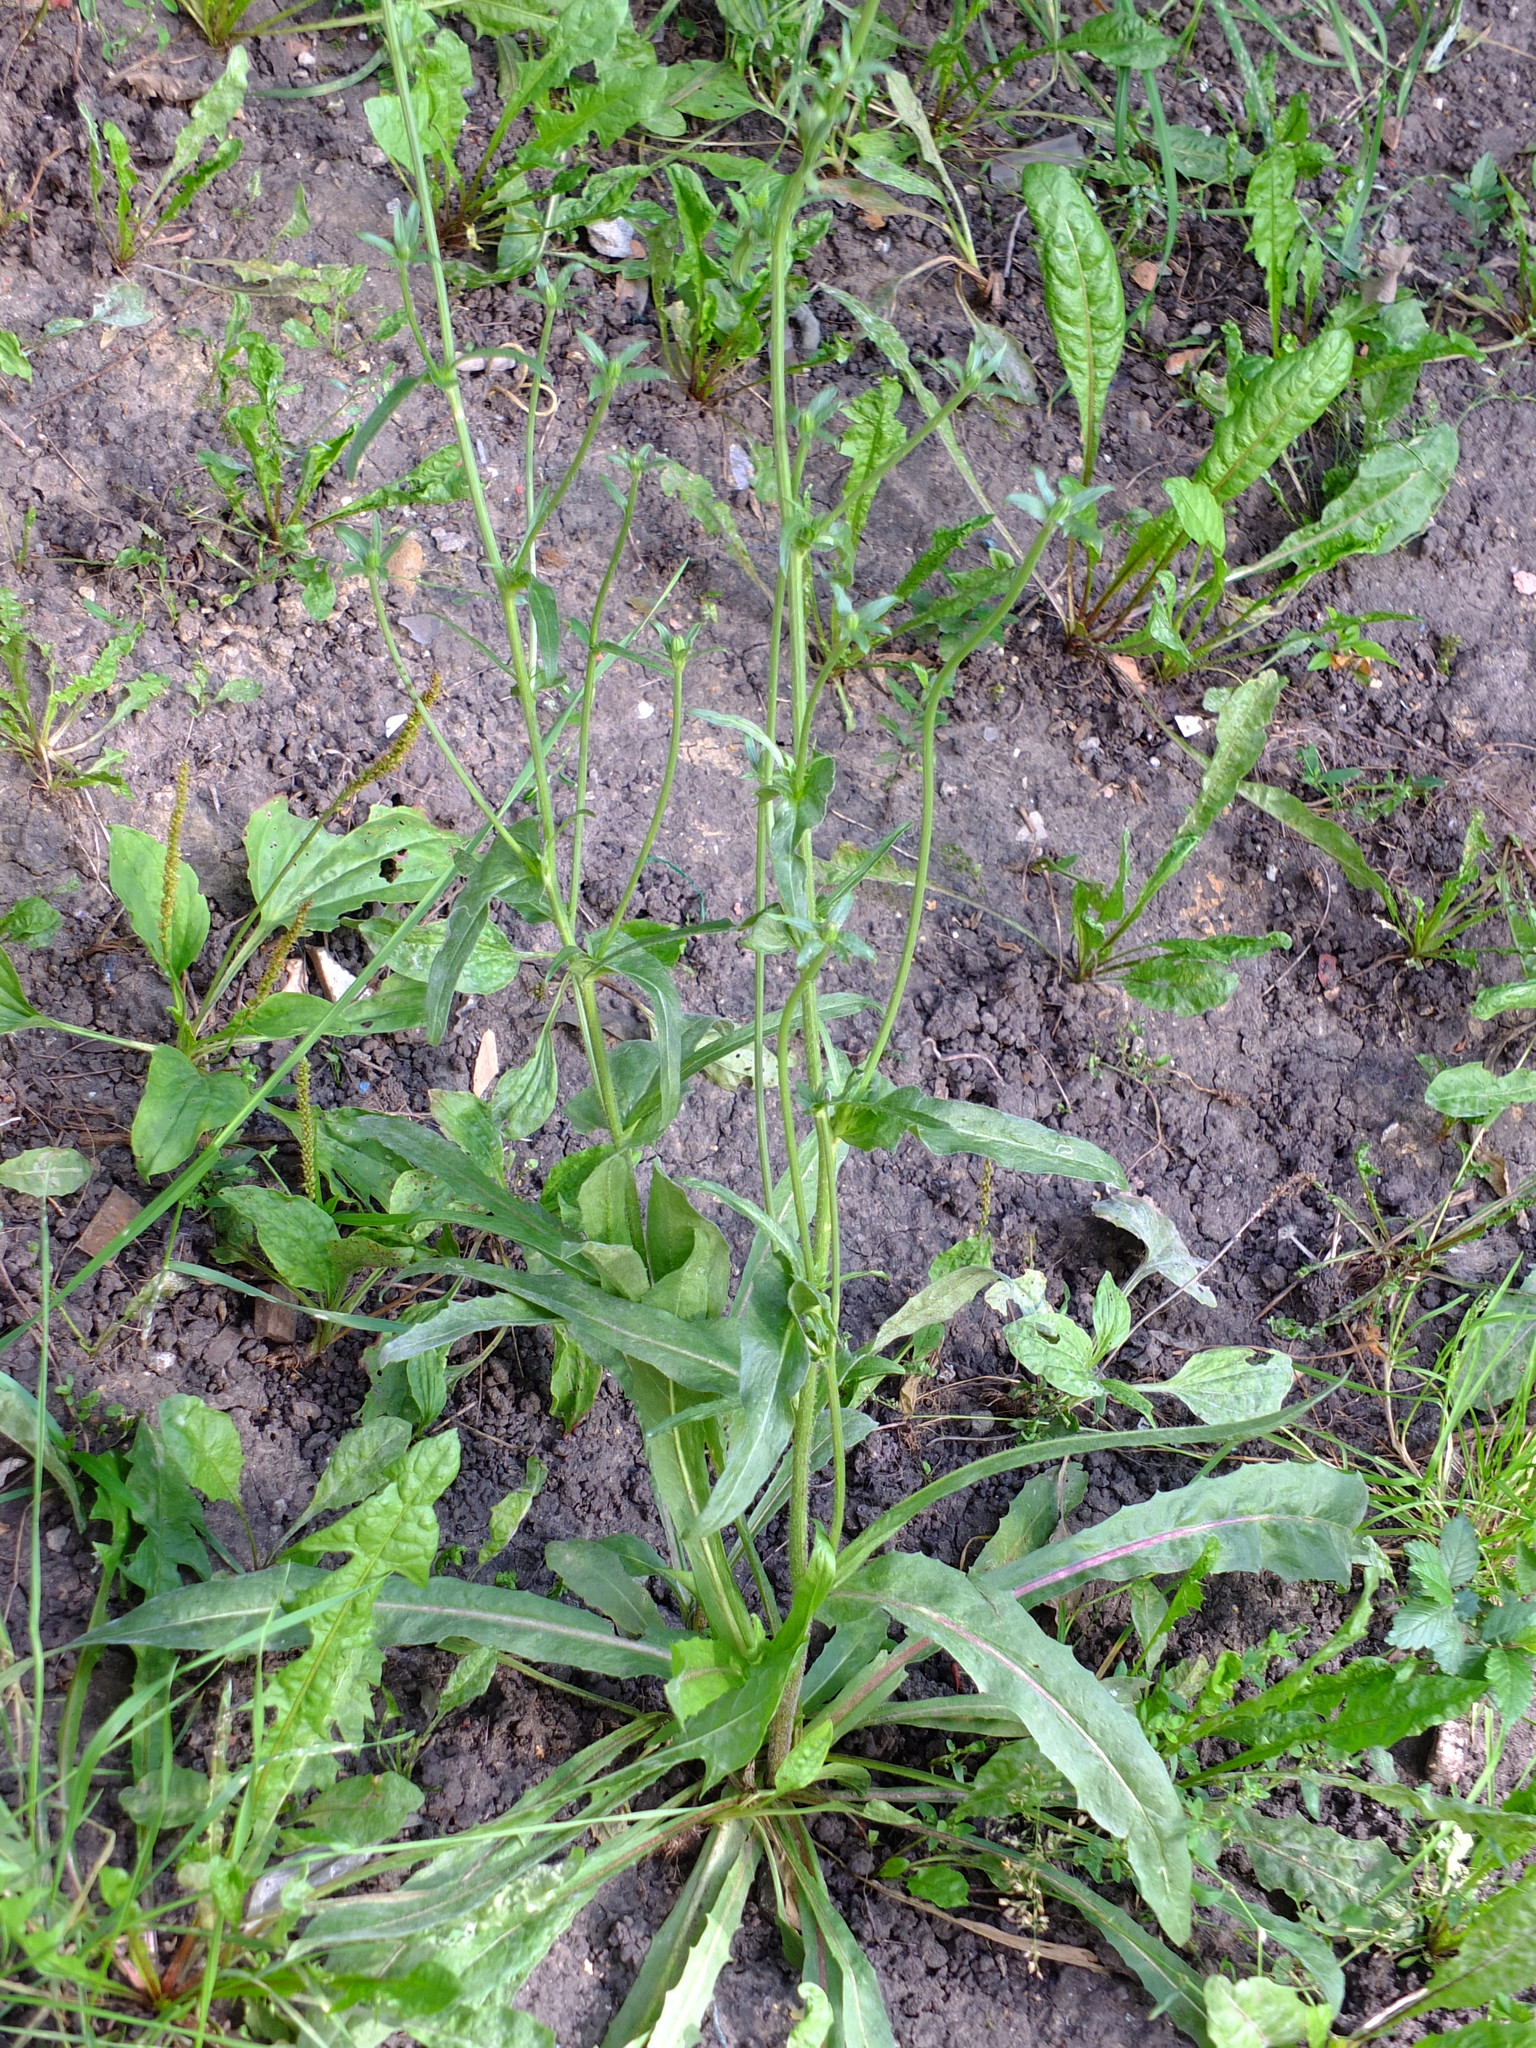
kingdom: Plantae
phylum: Tracheophyta
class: Magnoliopsida
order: Asterales
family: Asteraceae
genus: Cichorium
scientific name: Cichorium intybus
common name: Chicory
